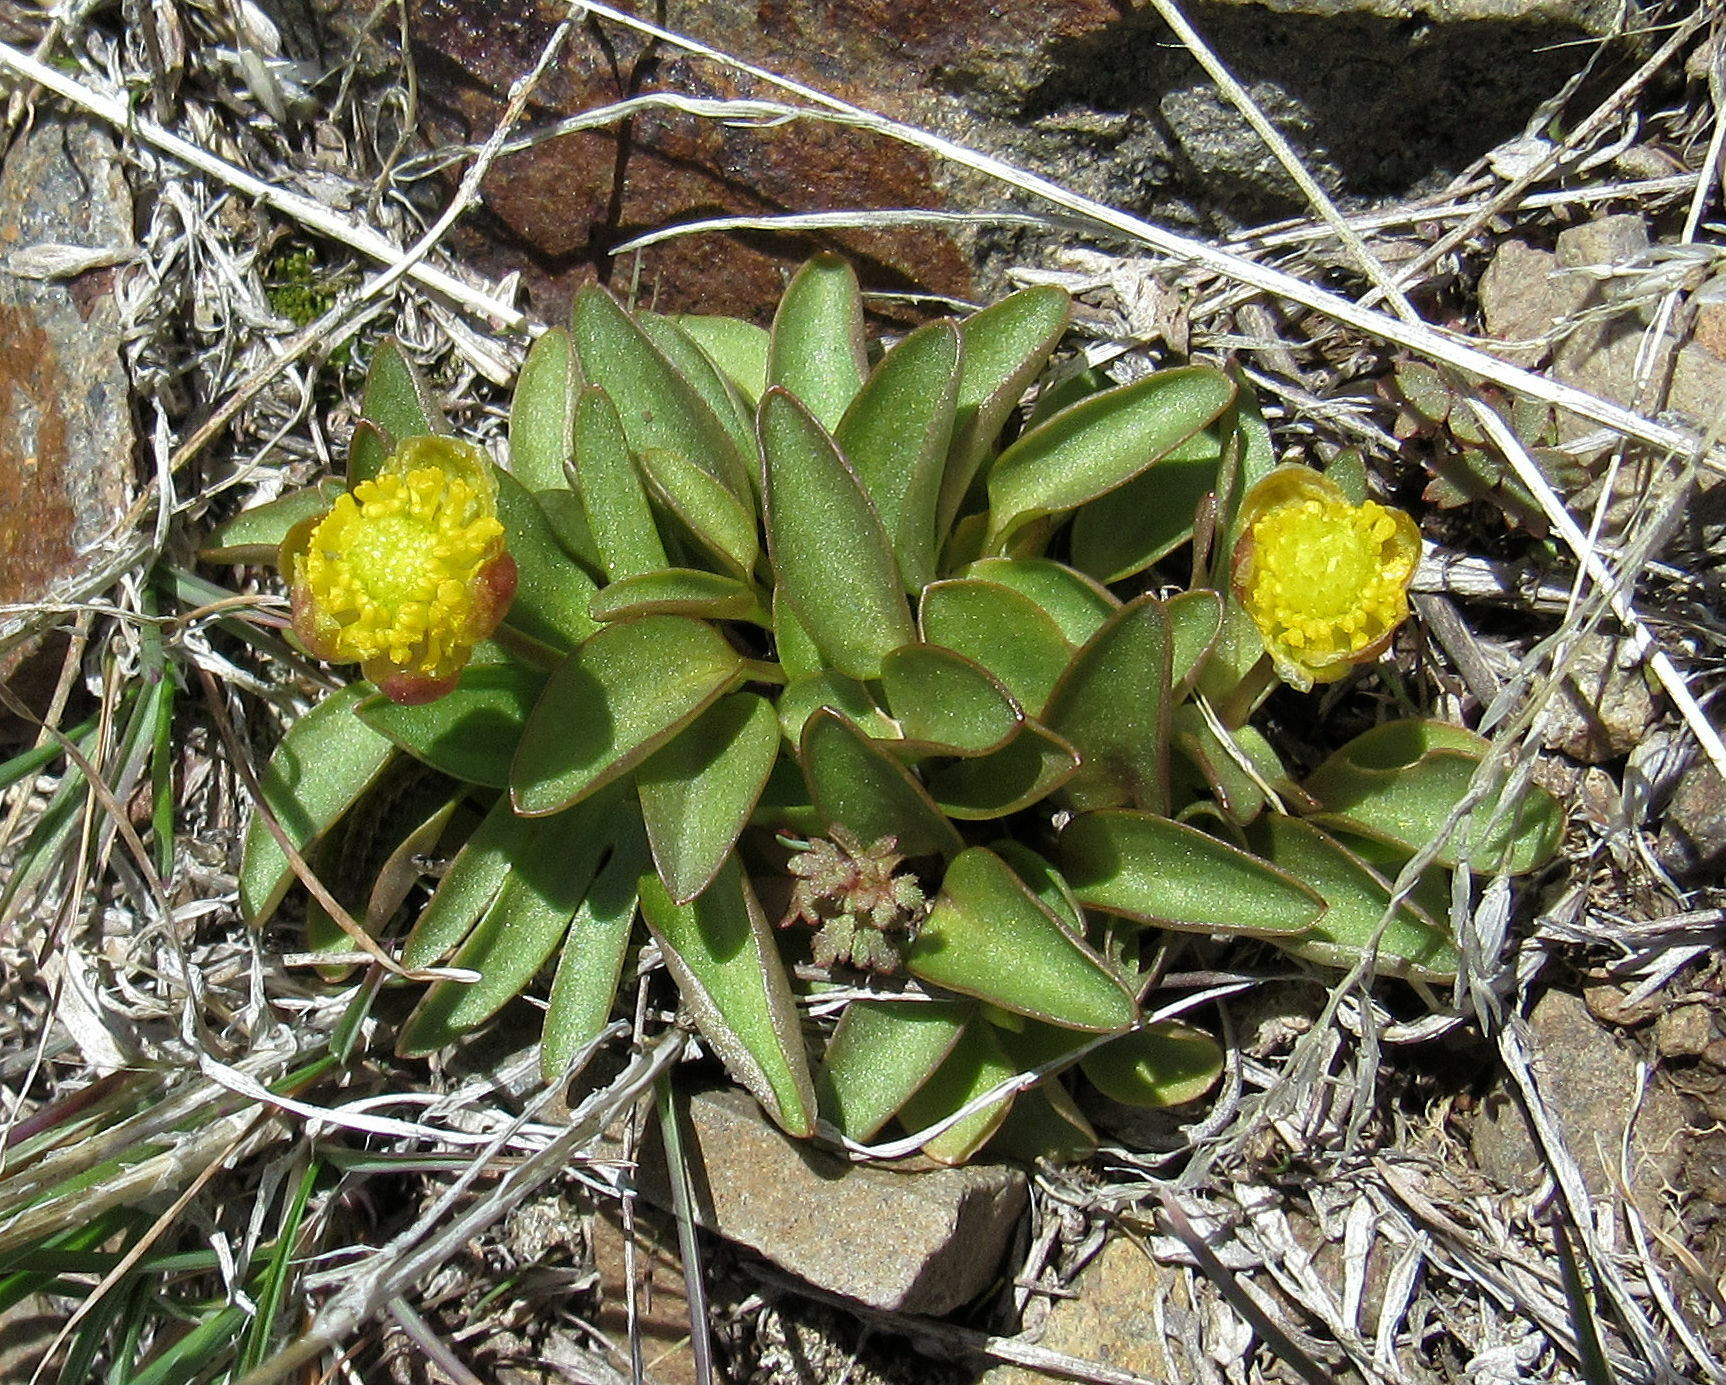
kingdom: Plantae
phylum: Tracheophyta
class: Magnoliopsida
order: Ranunculales
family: Ranunculaceae
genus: Ranunculus
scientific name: Ranunculus glaberrimus
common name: Sagebrush buttercup
